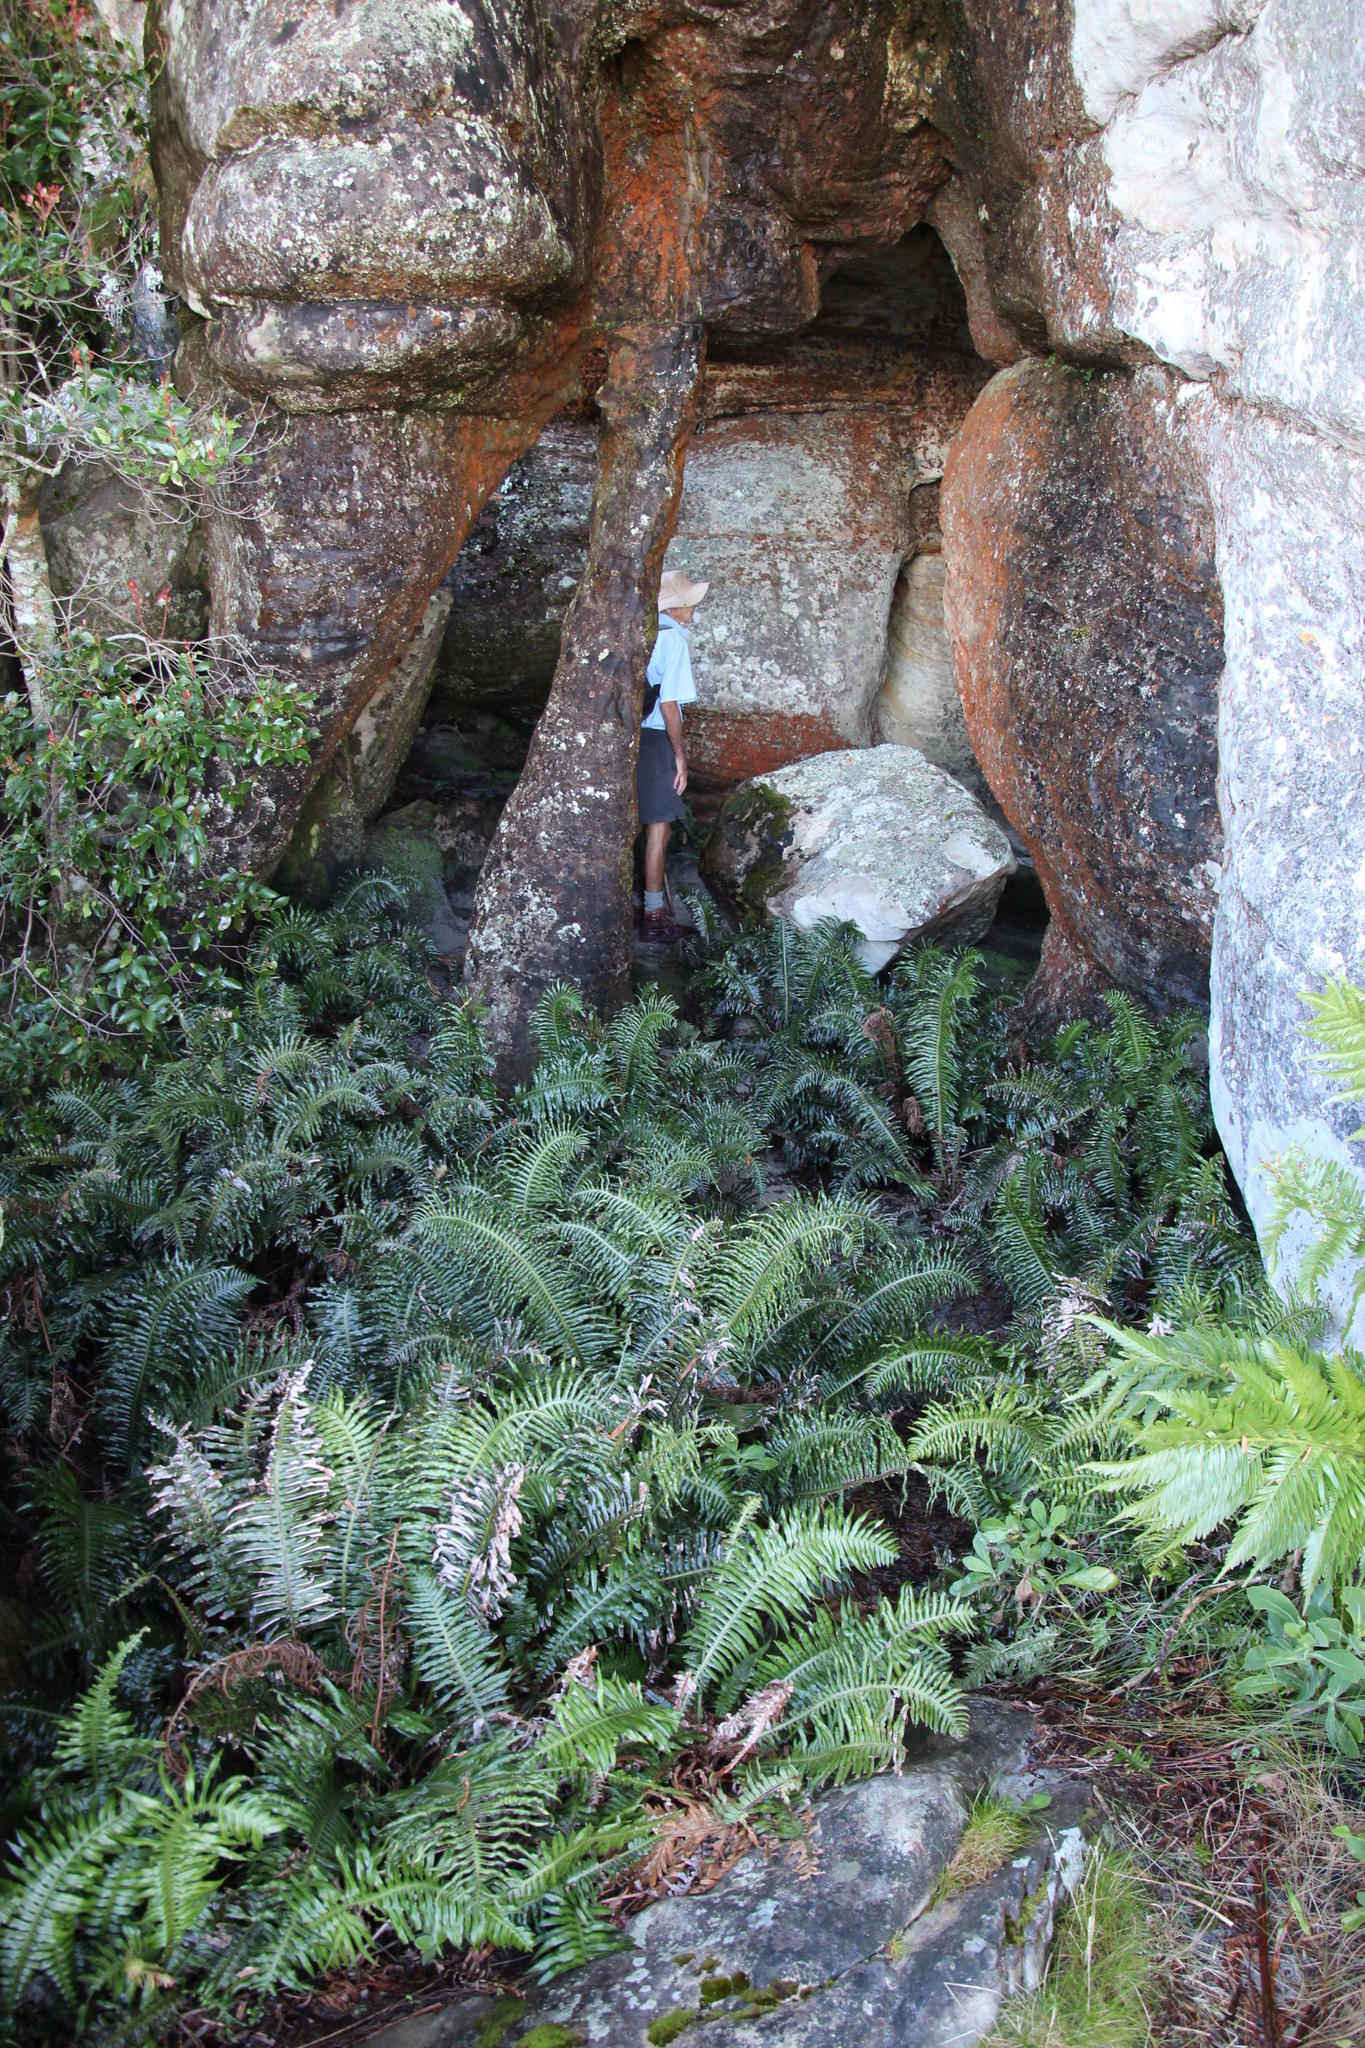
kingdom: Plantae
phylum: Tracheophyta
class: Polypodiopsida
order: Polypodiales
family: Blechnaceae
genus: Lomaridium
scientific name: Lomaridium attenuatum
